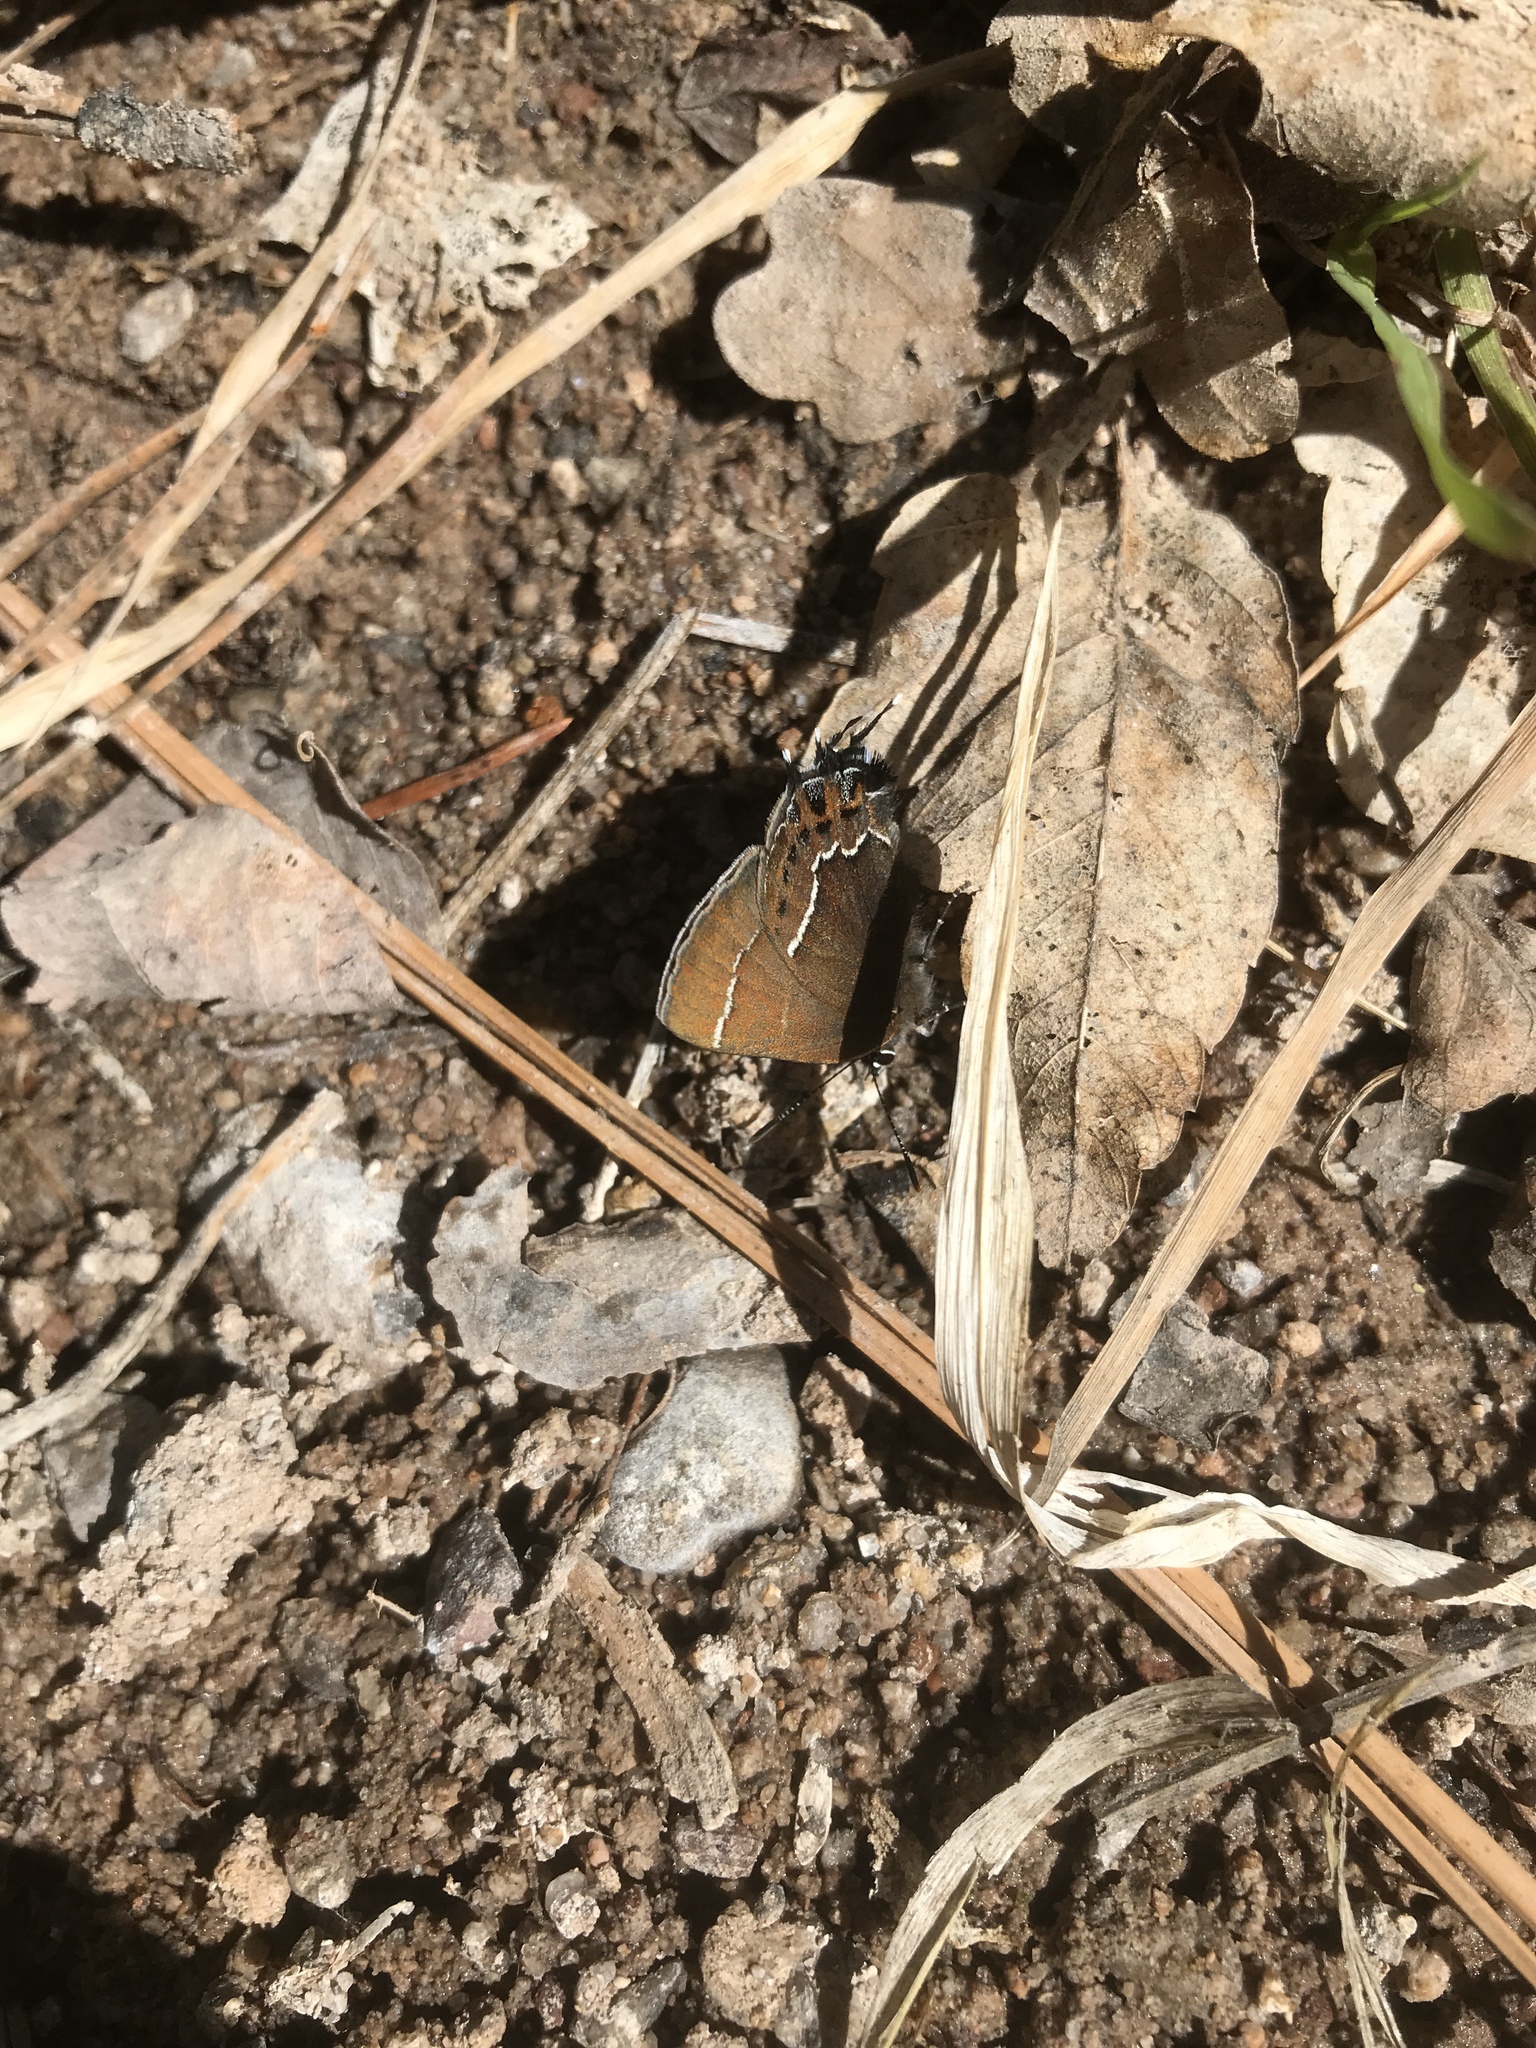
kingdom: Animalia
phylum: Arthropoda
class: Insecta
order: Lepidoptera
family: Lycaenidae
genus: Mitoura
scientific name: Mitoura spinetorum
